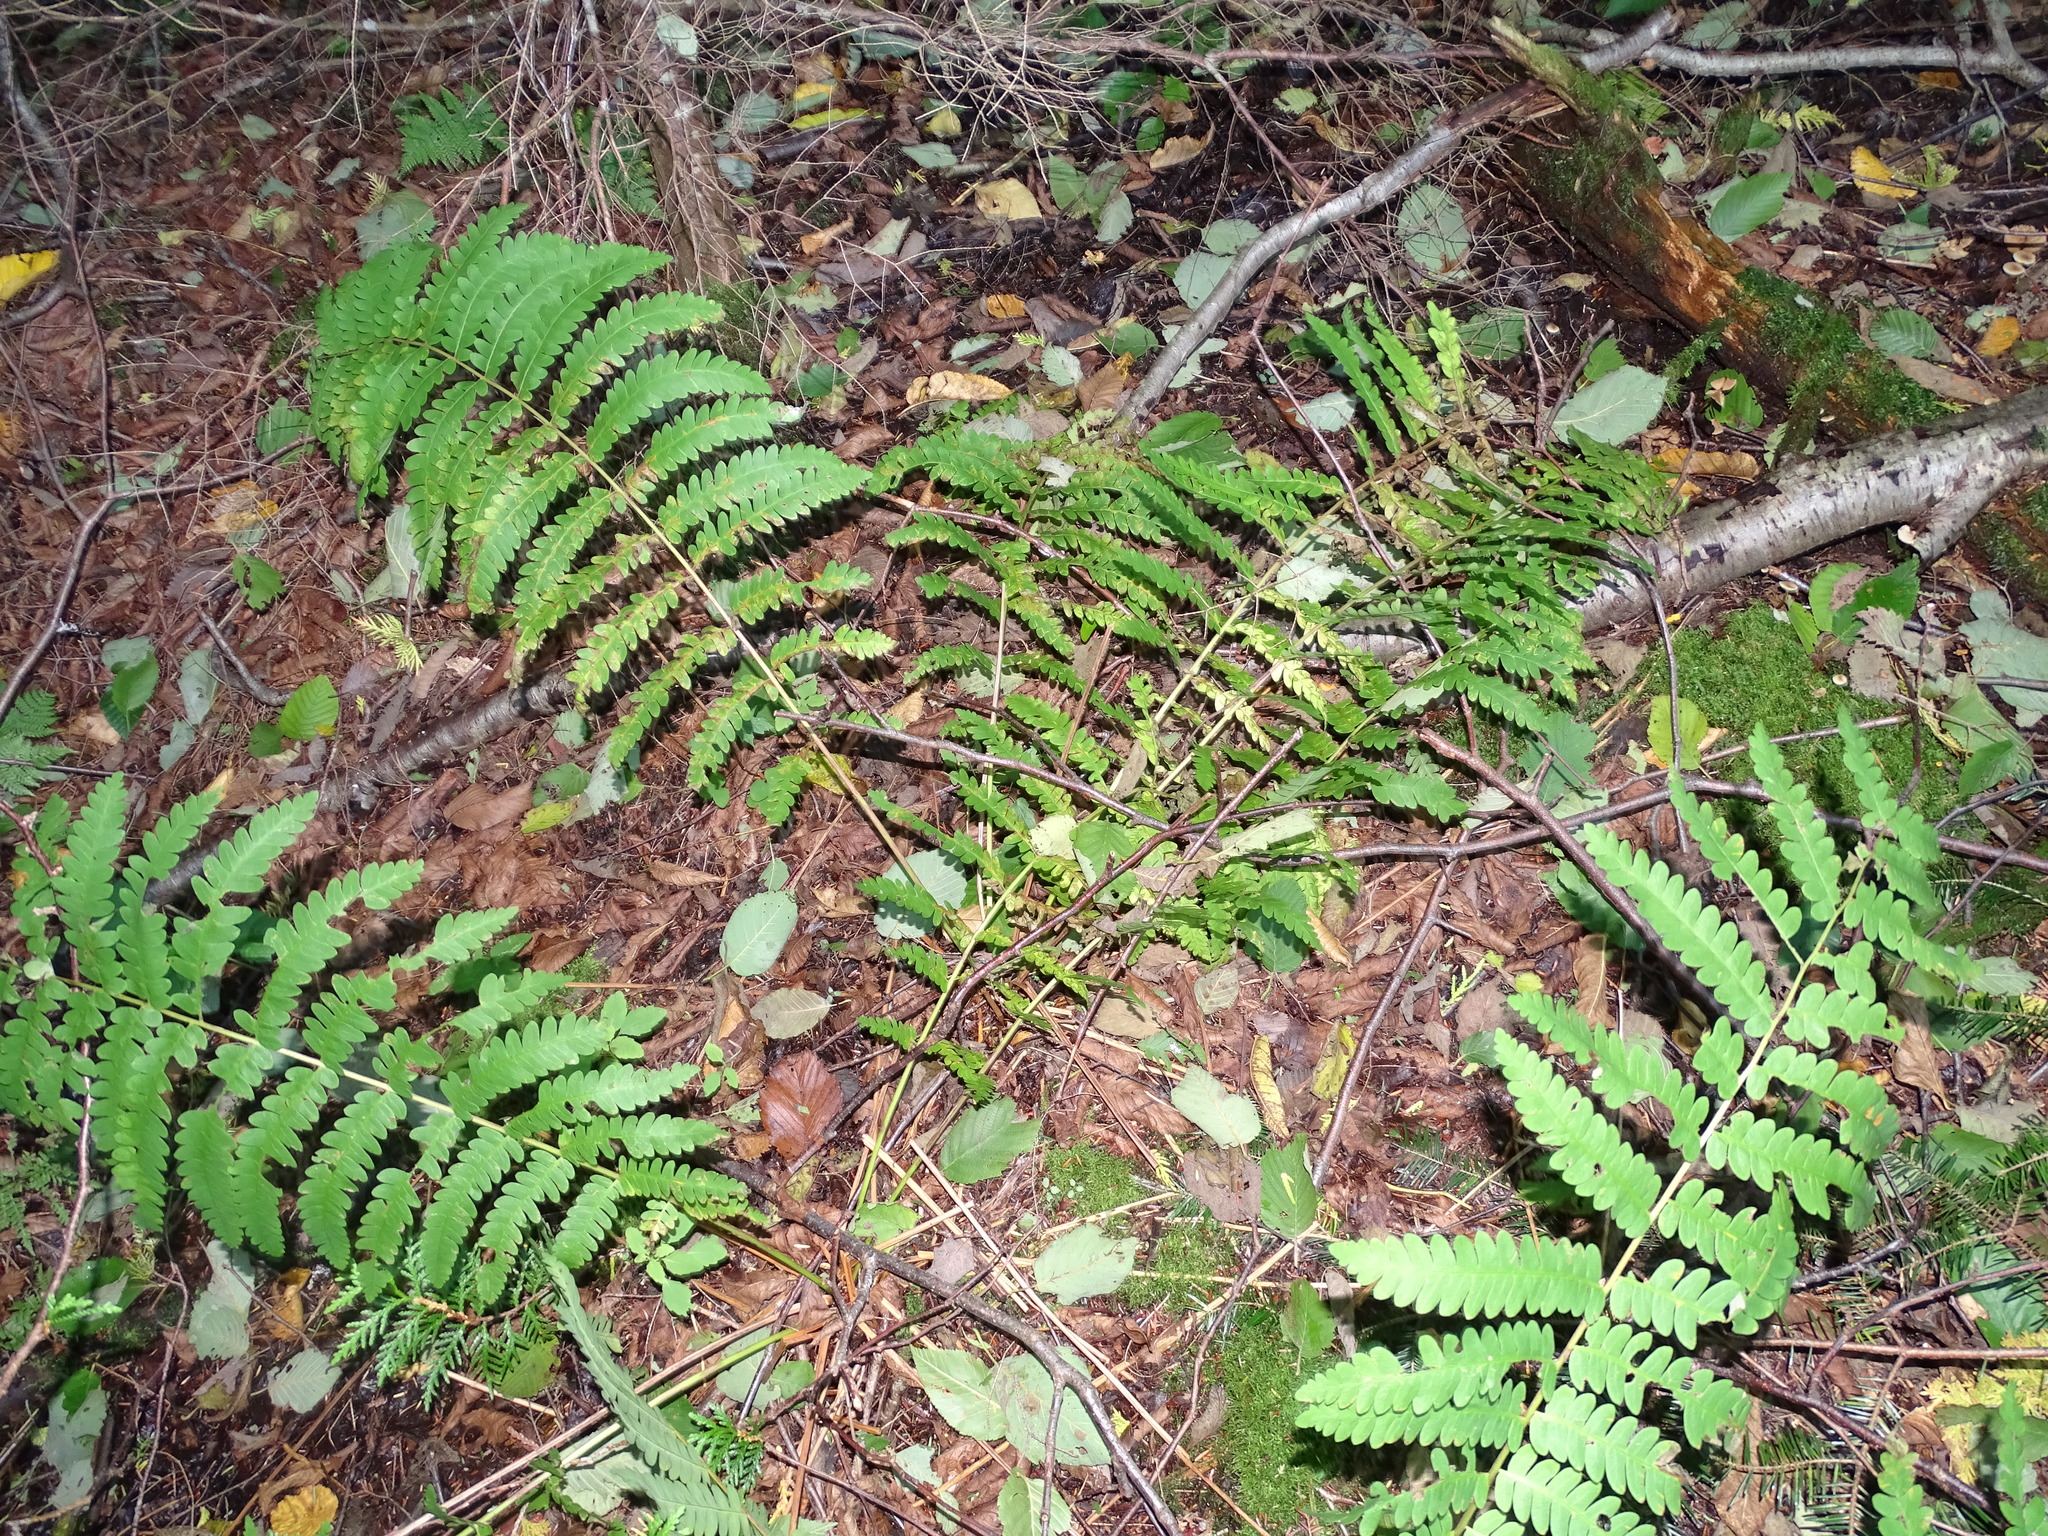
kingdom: Plantae
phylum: Tracheophyta
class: Polypodiopsida
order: Osmundales
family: Osmundaceae
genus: Claytosmunda
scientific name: Claytosmunda claytoniana
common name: Clayton's fern
